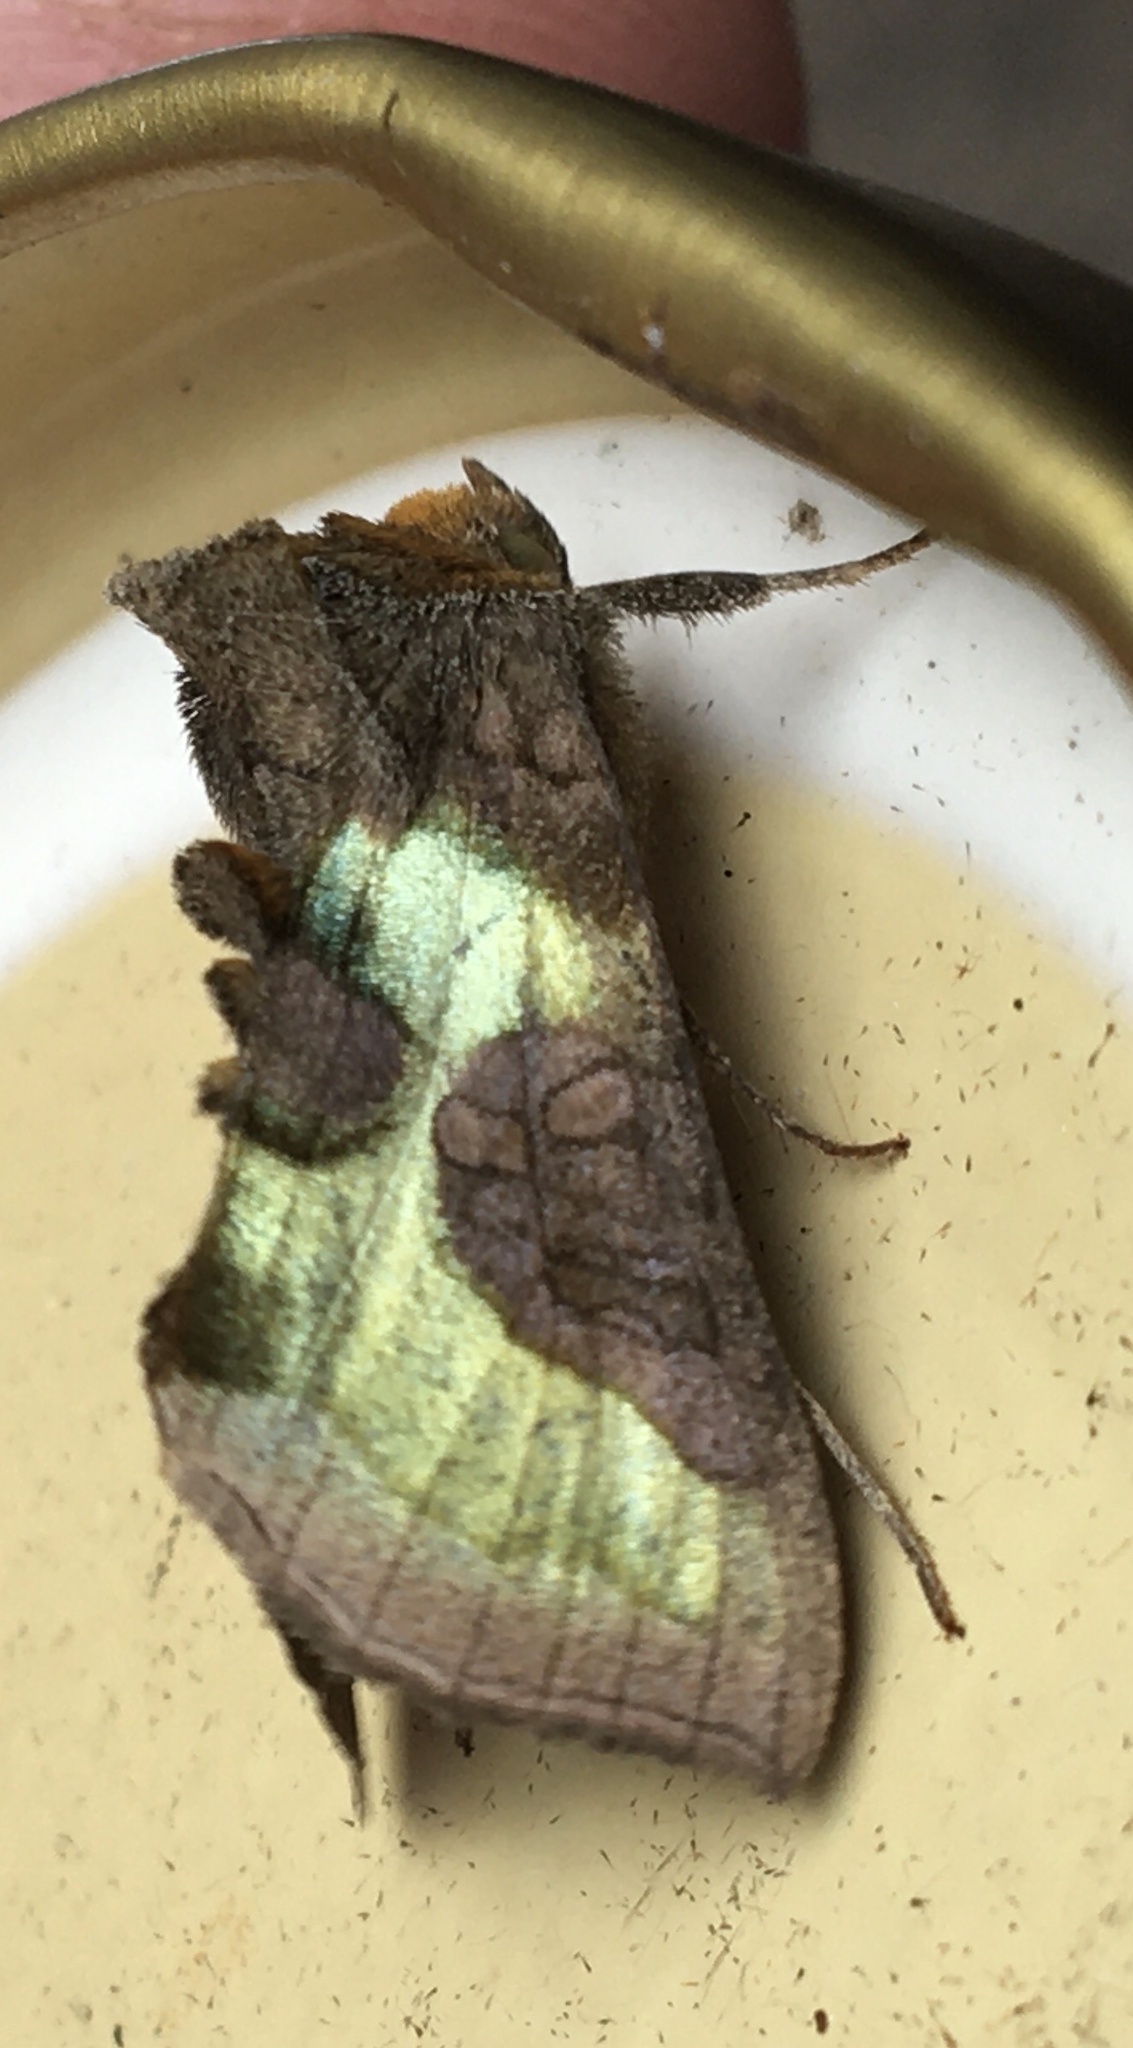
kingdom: Animalia
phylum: Arthropoda
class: Insecta
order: Lepidoptera
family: Noctuidae
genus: Diachrysia
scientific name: Diachrysia chrysitis
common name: Burnished brass
